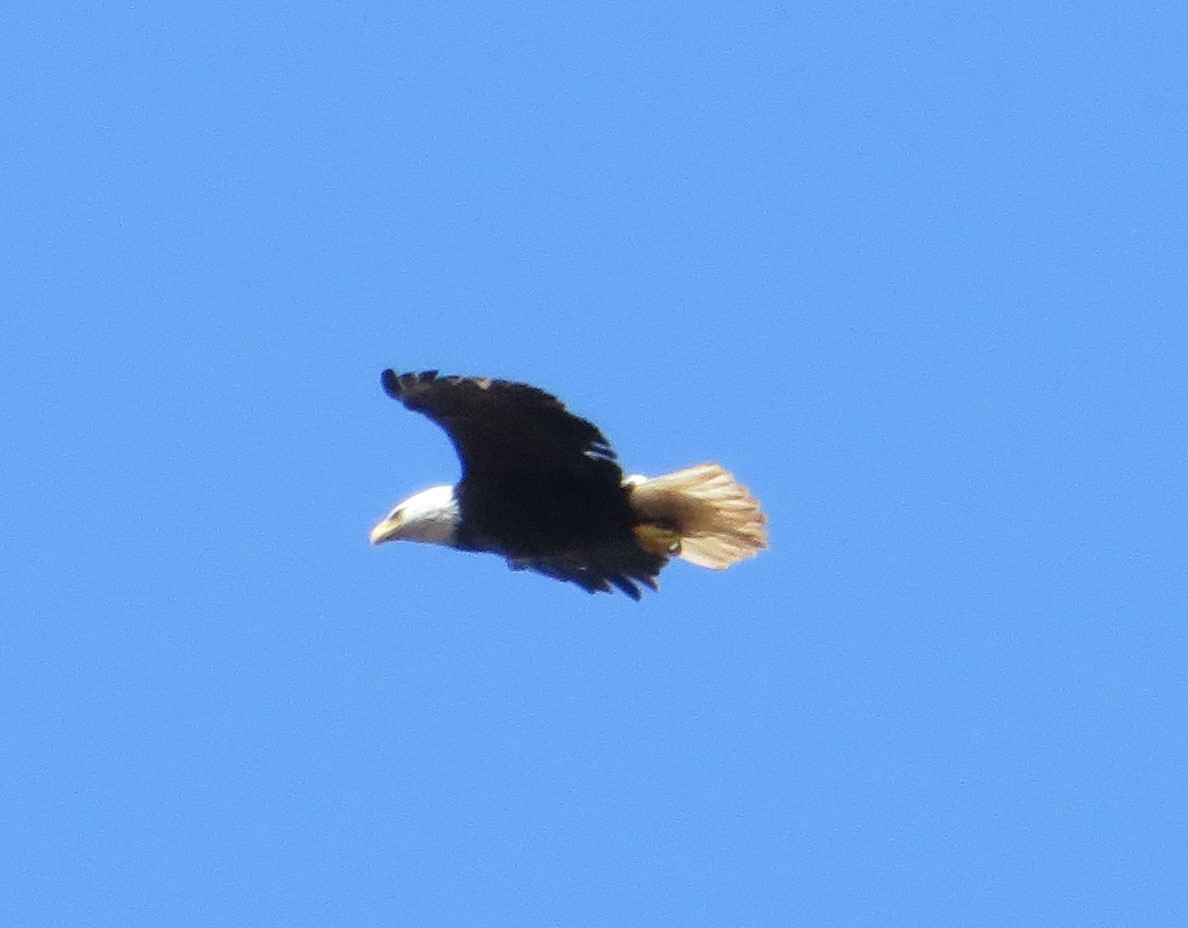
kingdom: Animalia
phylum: Chordata
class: Aves
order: Accipitriformes
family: Accipitridae
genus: Haliaeetus
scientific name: Haliaeetus leucocephalus
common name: Bald eagle
